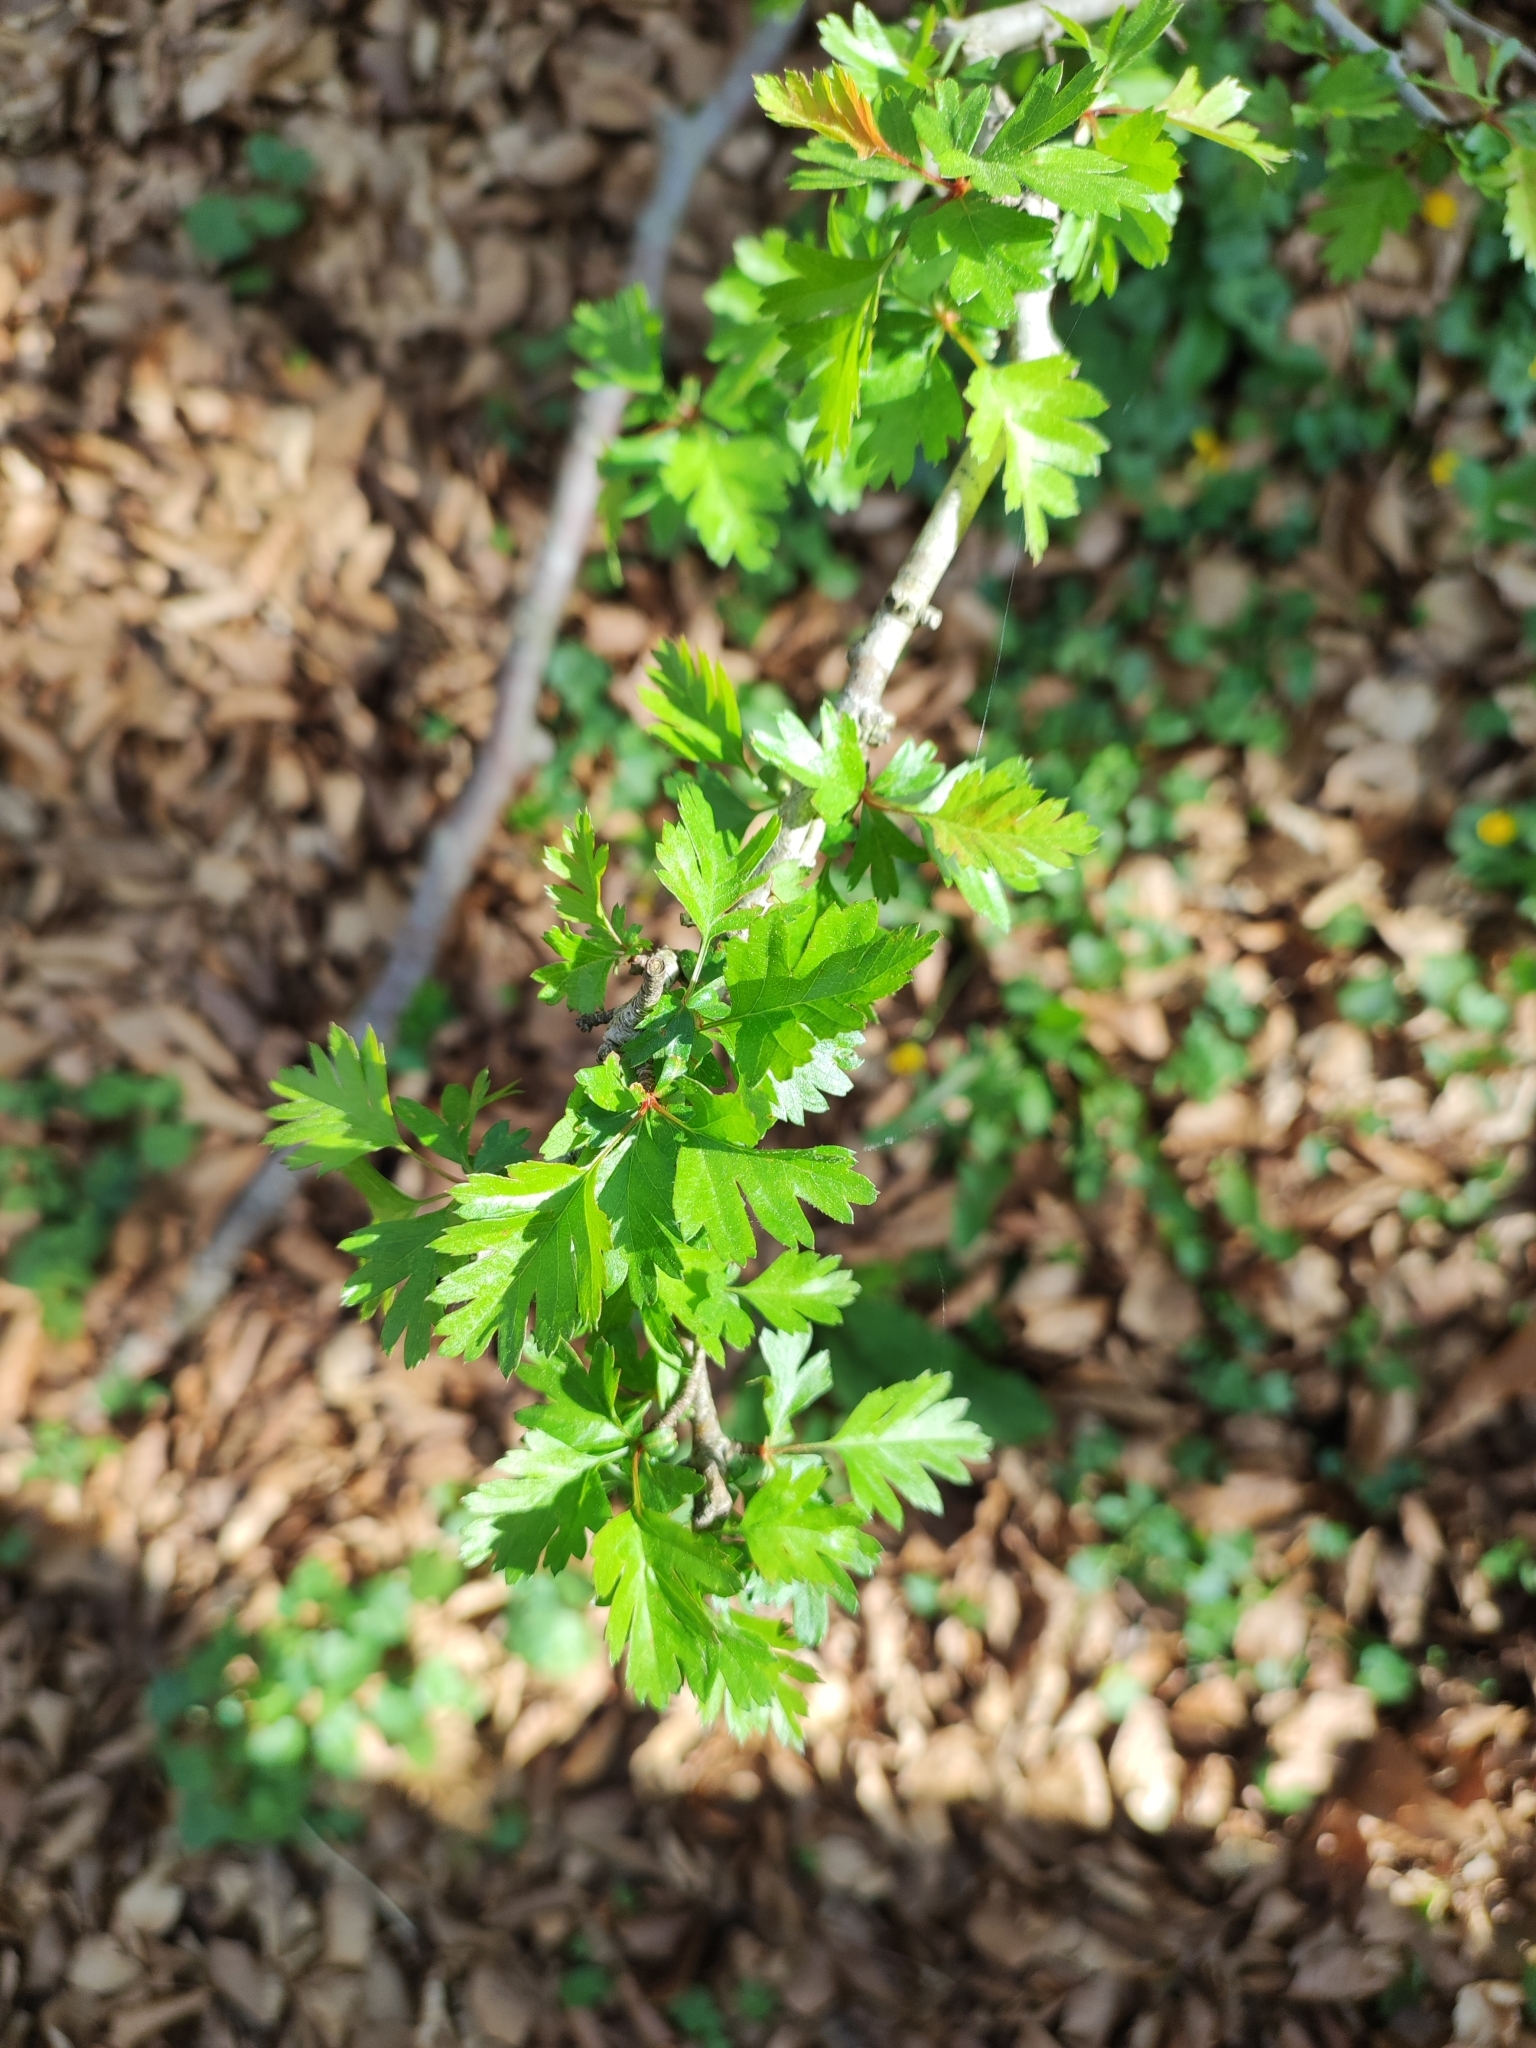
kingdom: Plantae
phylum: Tracheophyta
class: Magnoliopsida
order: Rosales
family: Rosaceae
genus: Crataegus
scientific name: Crataegus monogyna
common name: Hawthorn
